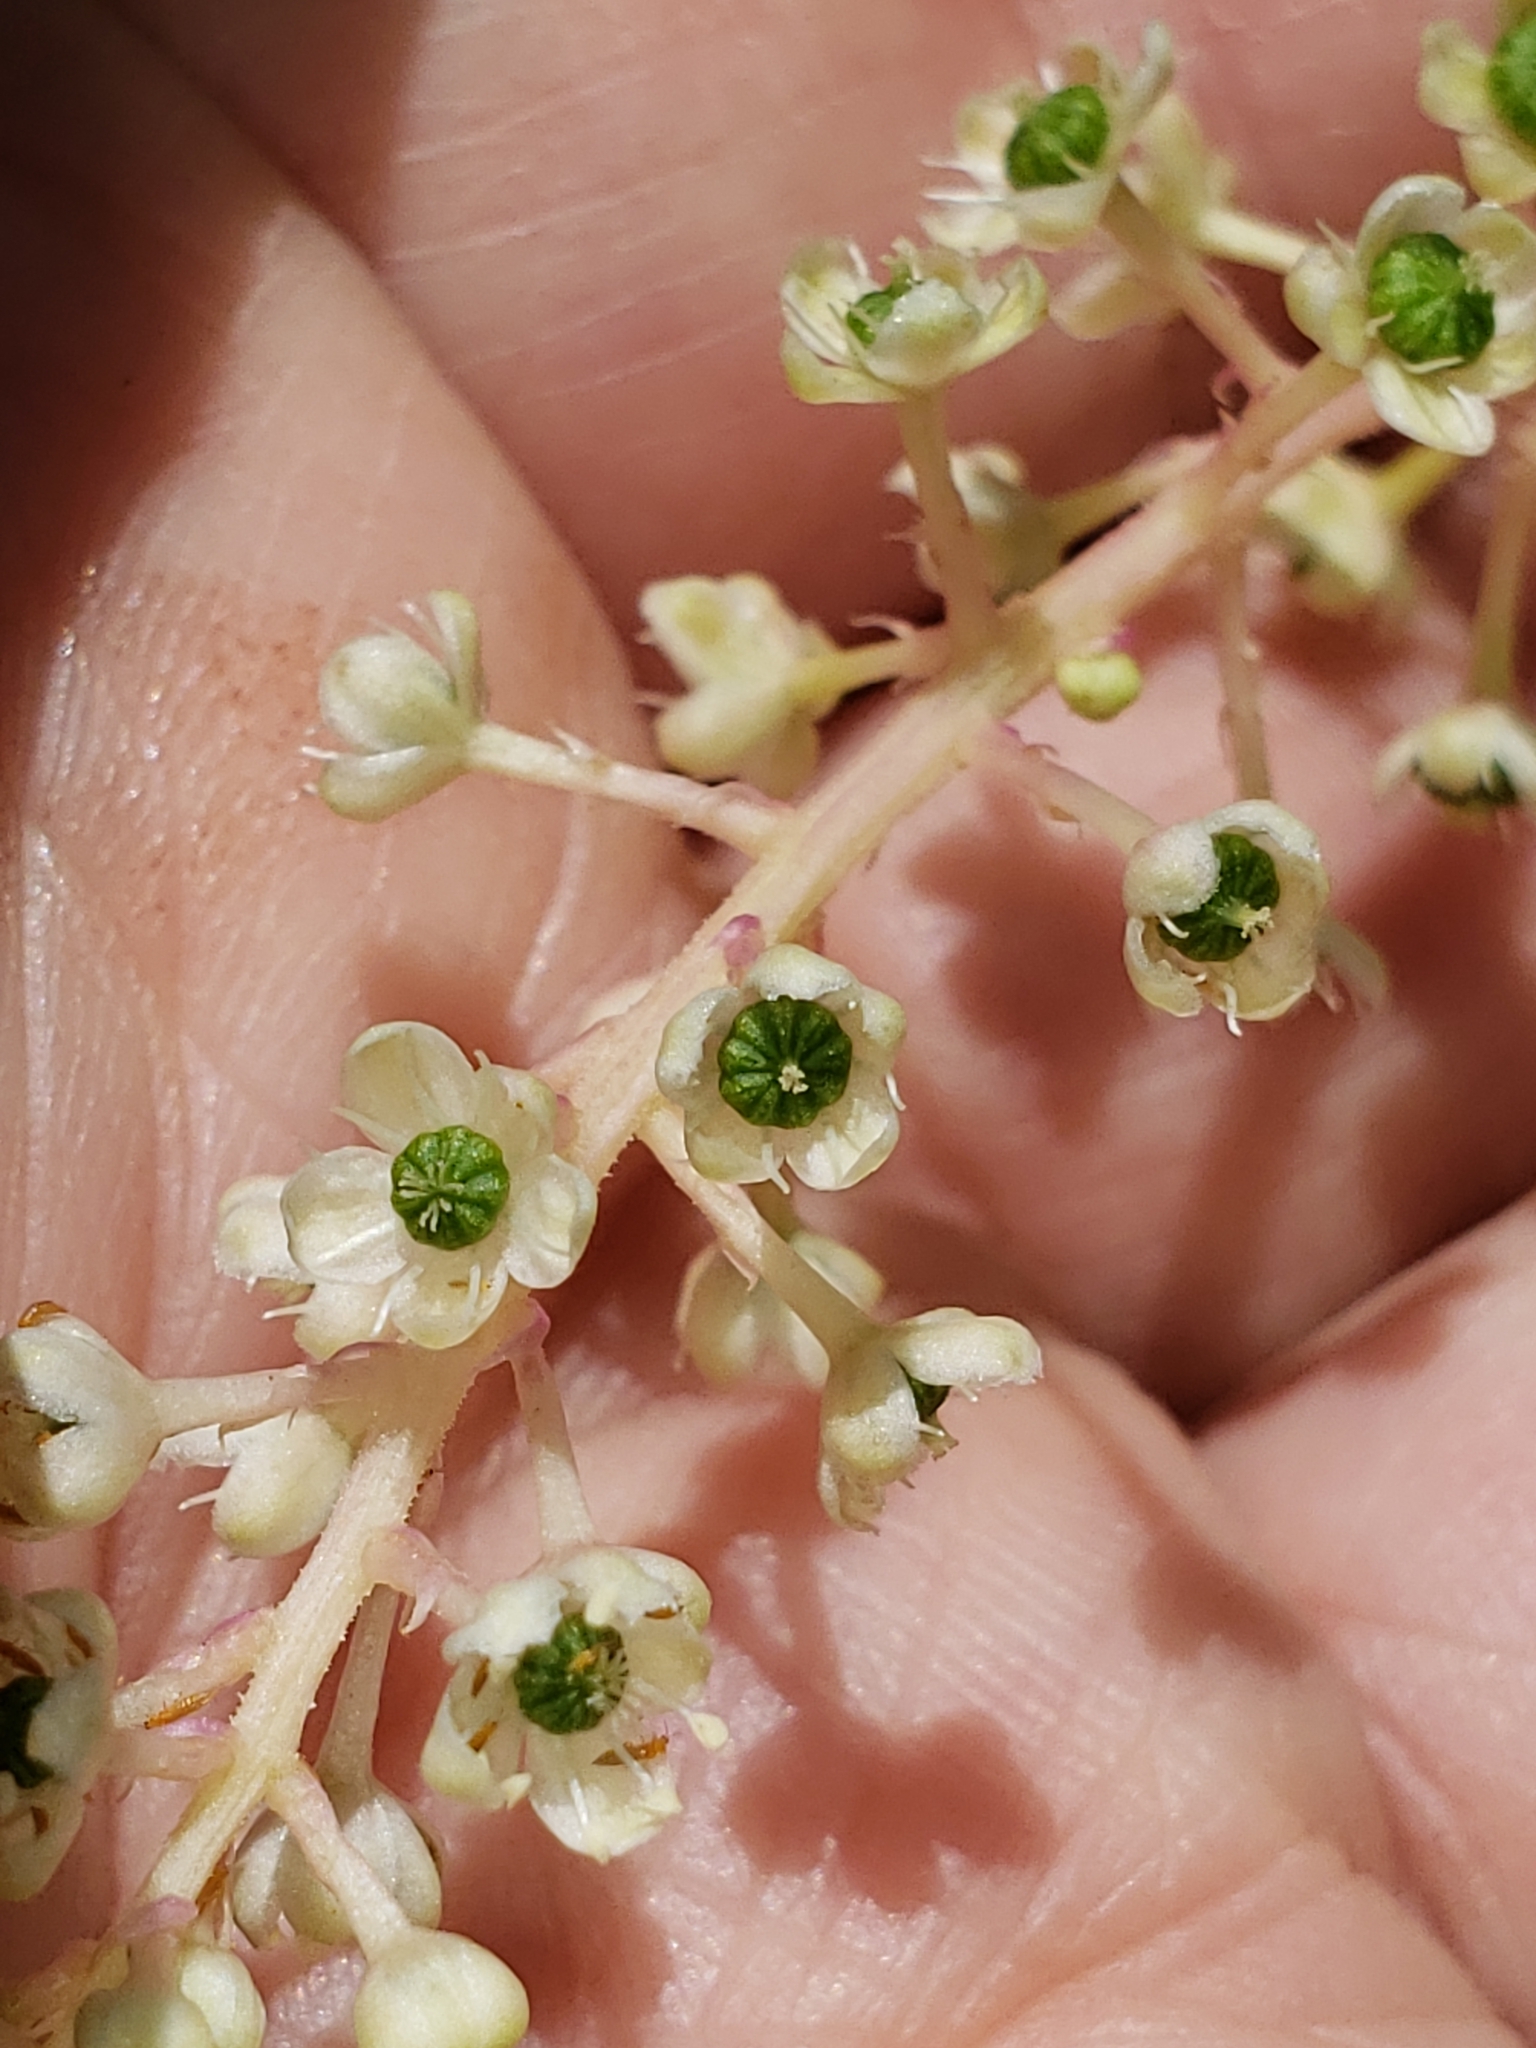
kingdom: Plantae
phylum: Tracheophyta
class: Magnoliopsida
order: Caryophyllales
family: Phytolaccaceae
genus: Phytolacca
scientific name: Phytolacca americana
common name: American pokeweed
